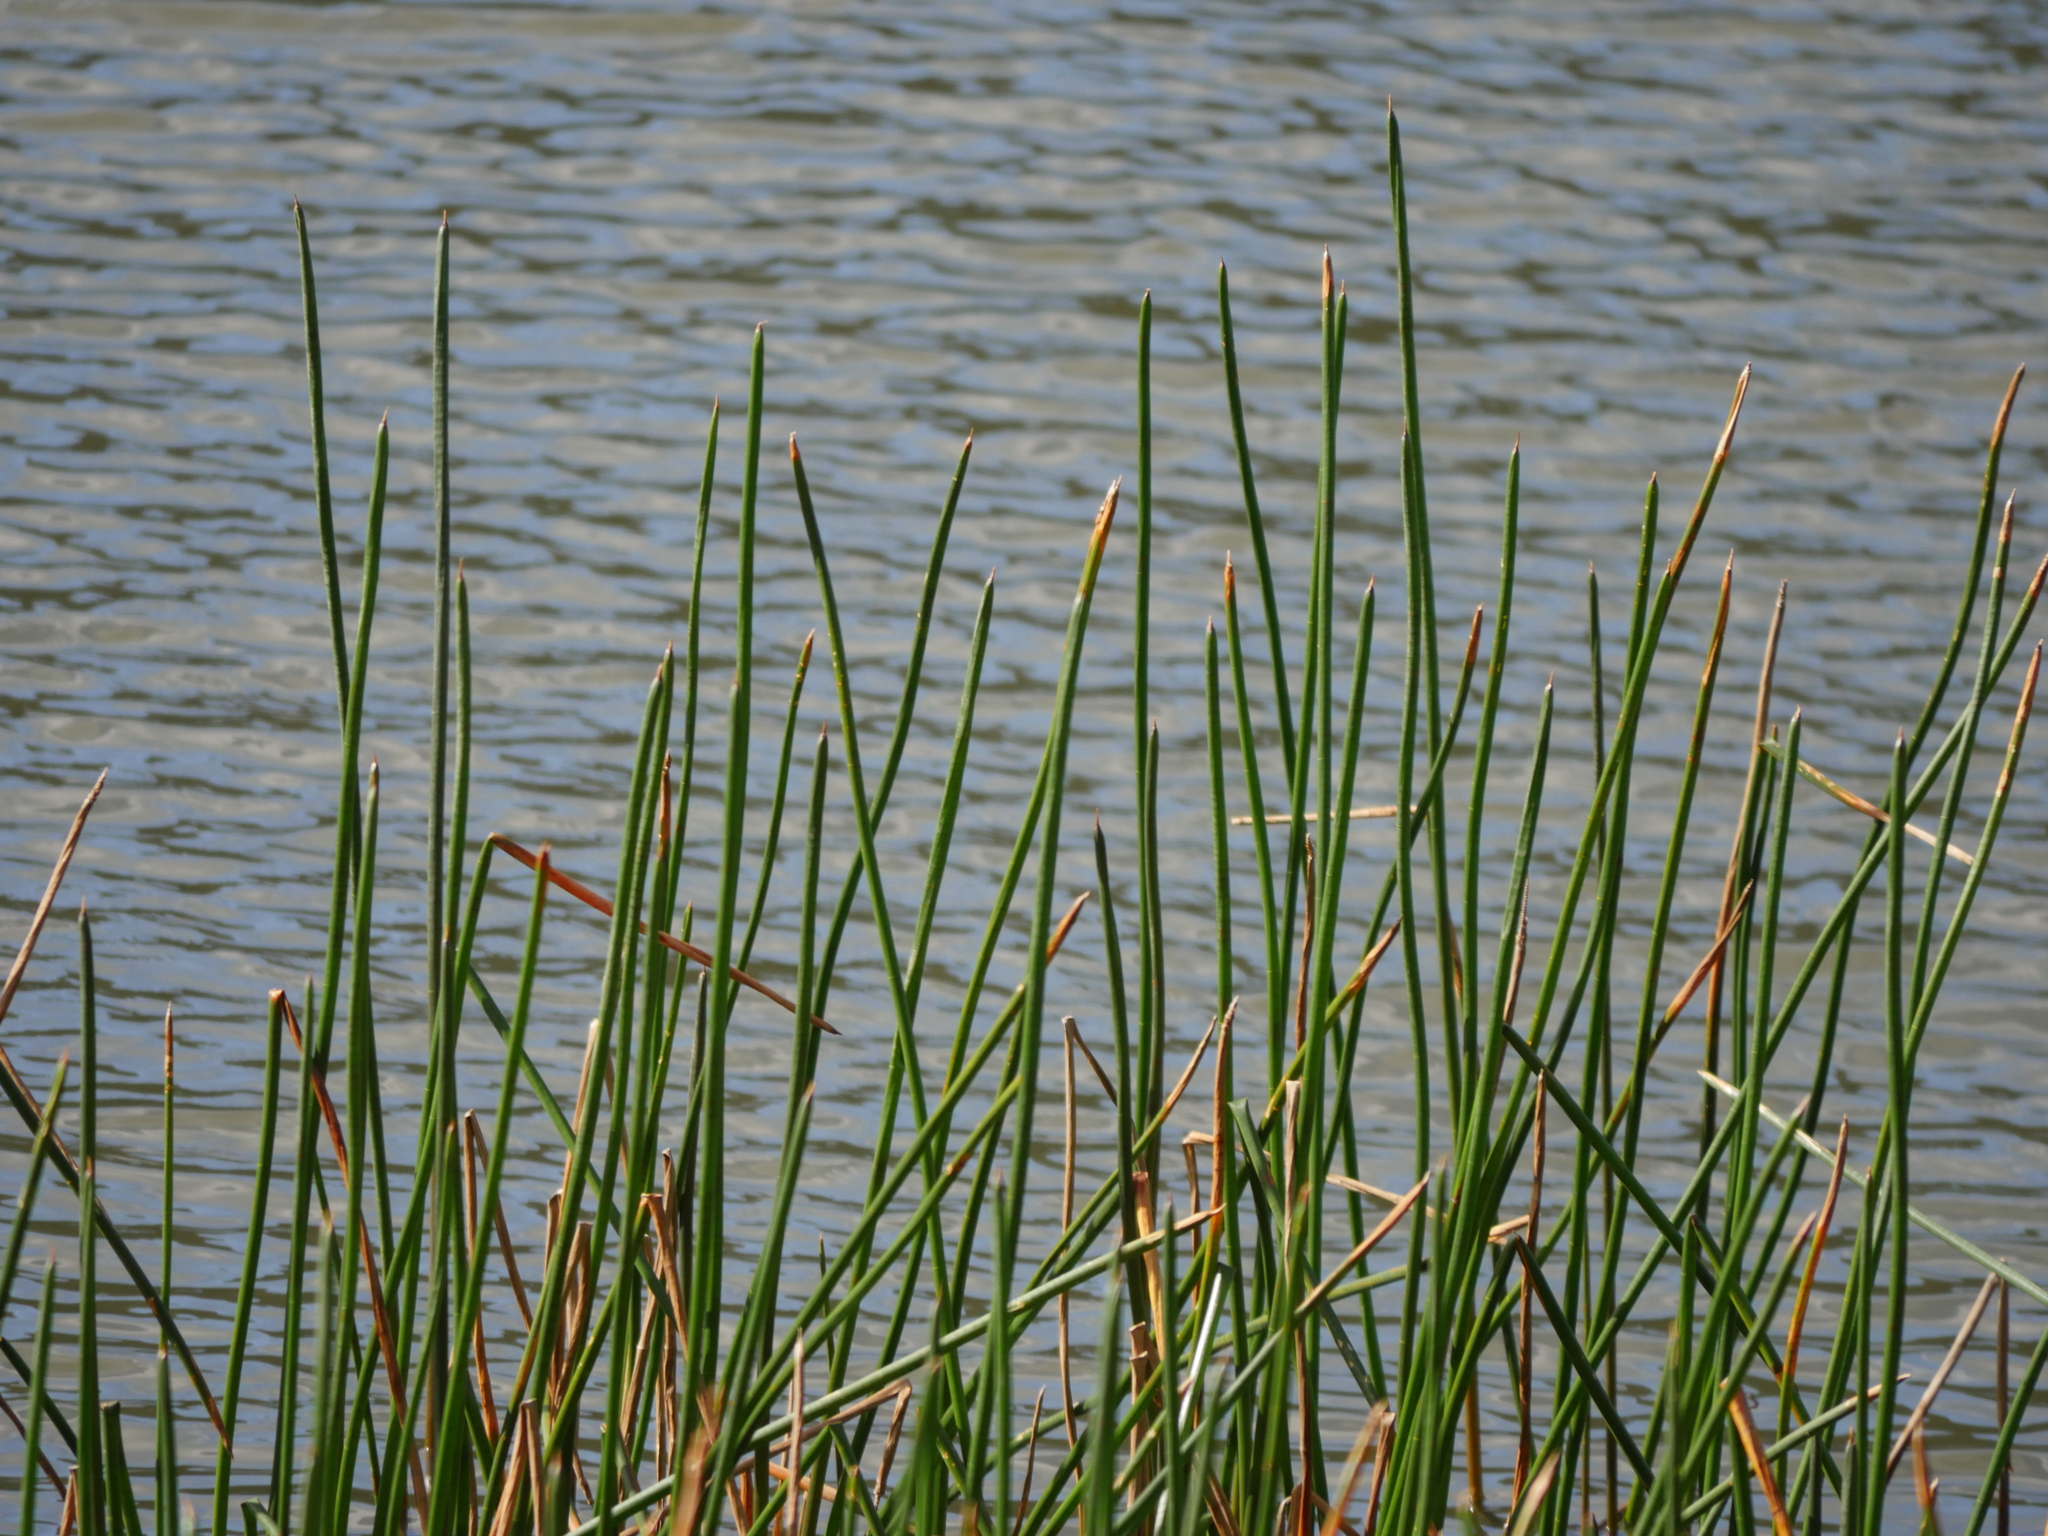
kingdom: Plantae
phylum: Tracheophyta
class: Liliopsida
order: Poales
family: Cyperaceae
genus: Eleocharis
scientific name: Eleocharis sphacelata
